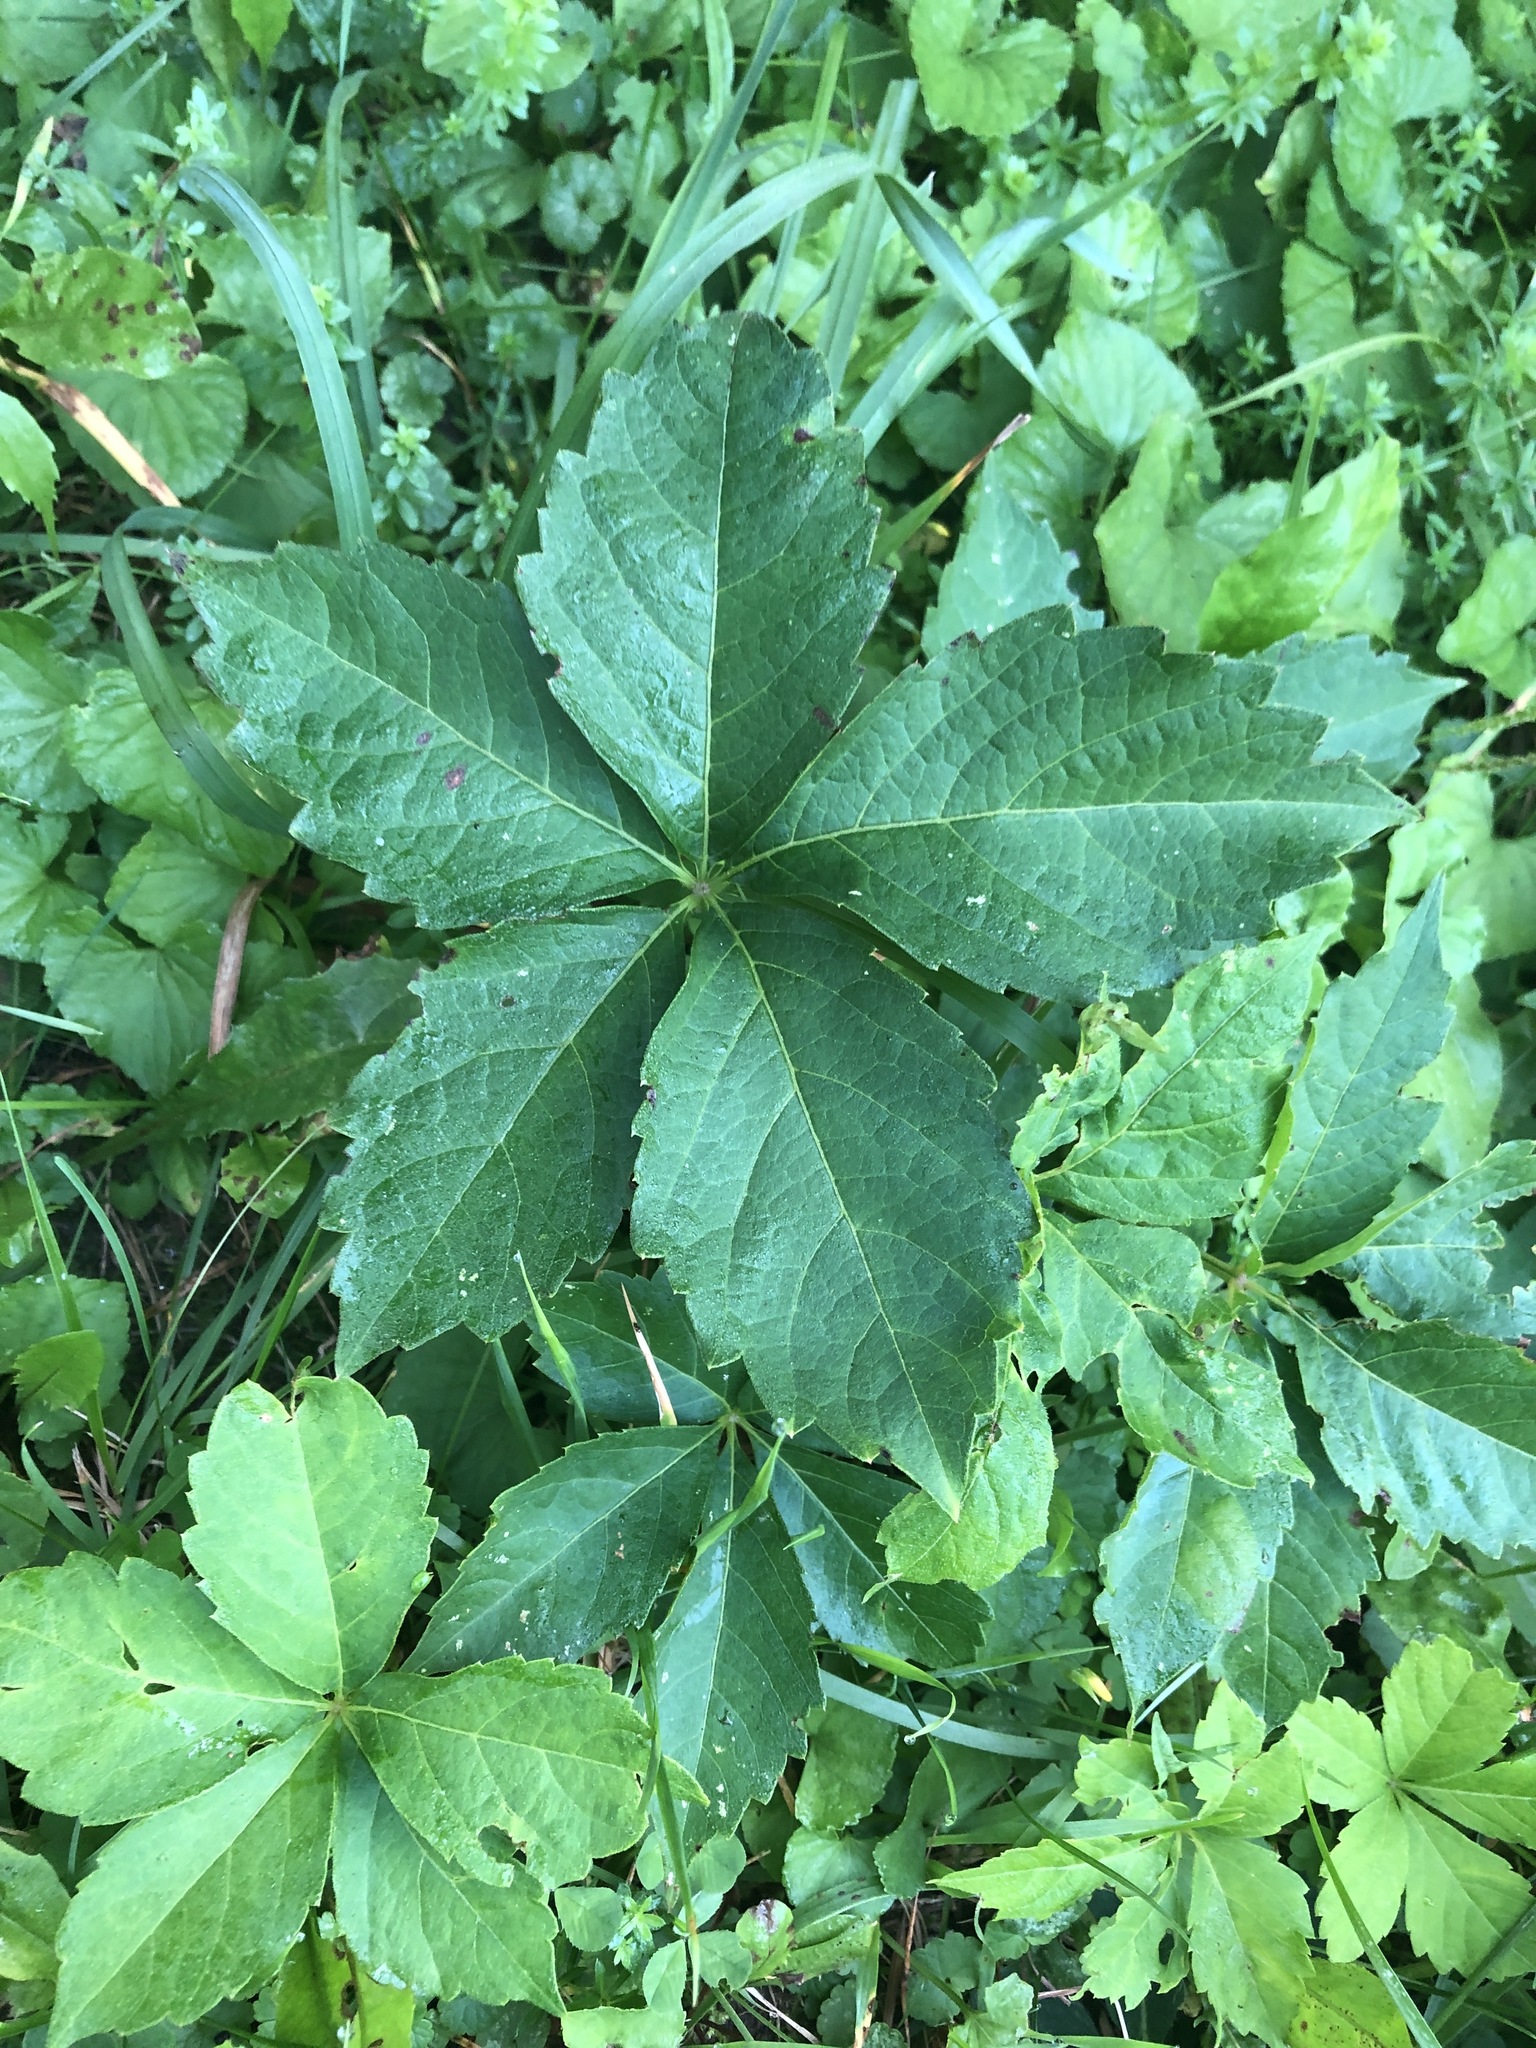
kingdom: Plantae
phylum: Tracheophyta
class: Magnoliopsida
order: Vitales
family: Vitaceae
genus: Parthenocissus
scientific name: Parthenocissus quinquefolia
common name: Virginia-creeper
